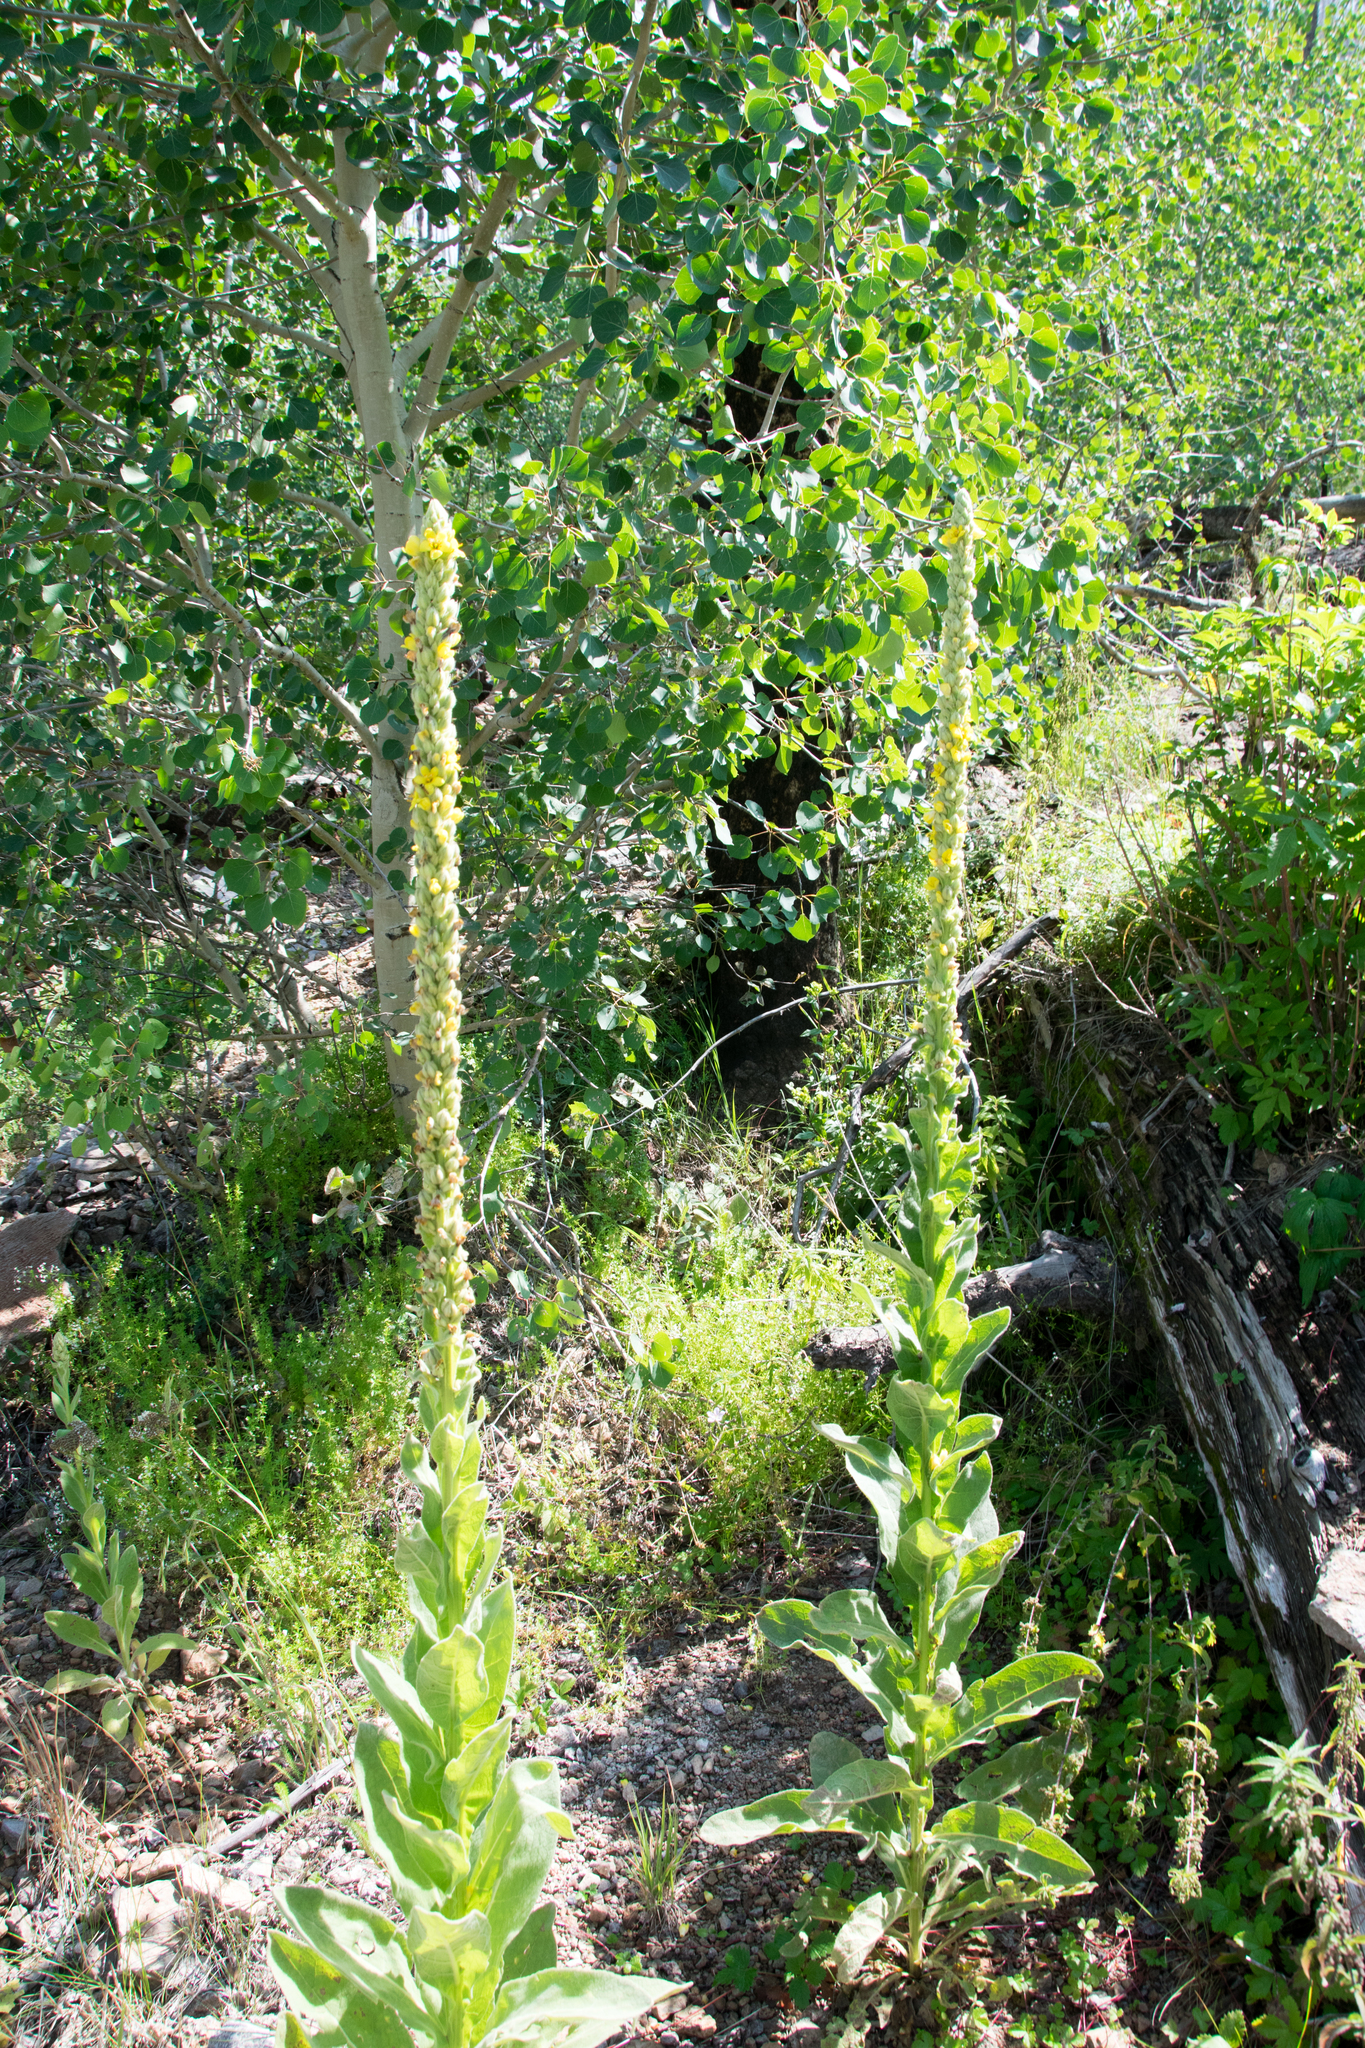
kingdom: Plantae
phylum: Tracheophyta
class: Magnoliopsida
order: Lamiales
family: Scrophulariaceae
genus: Verbascum
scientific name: Verbascum thapsus
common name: Common mullein
